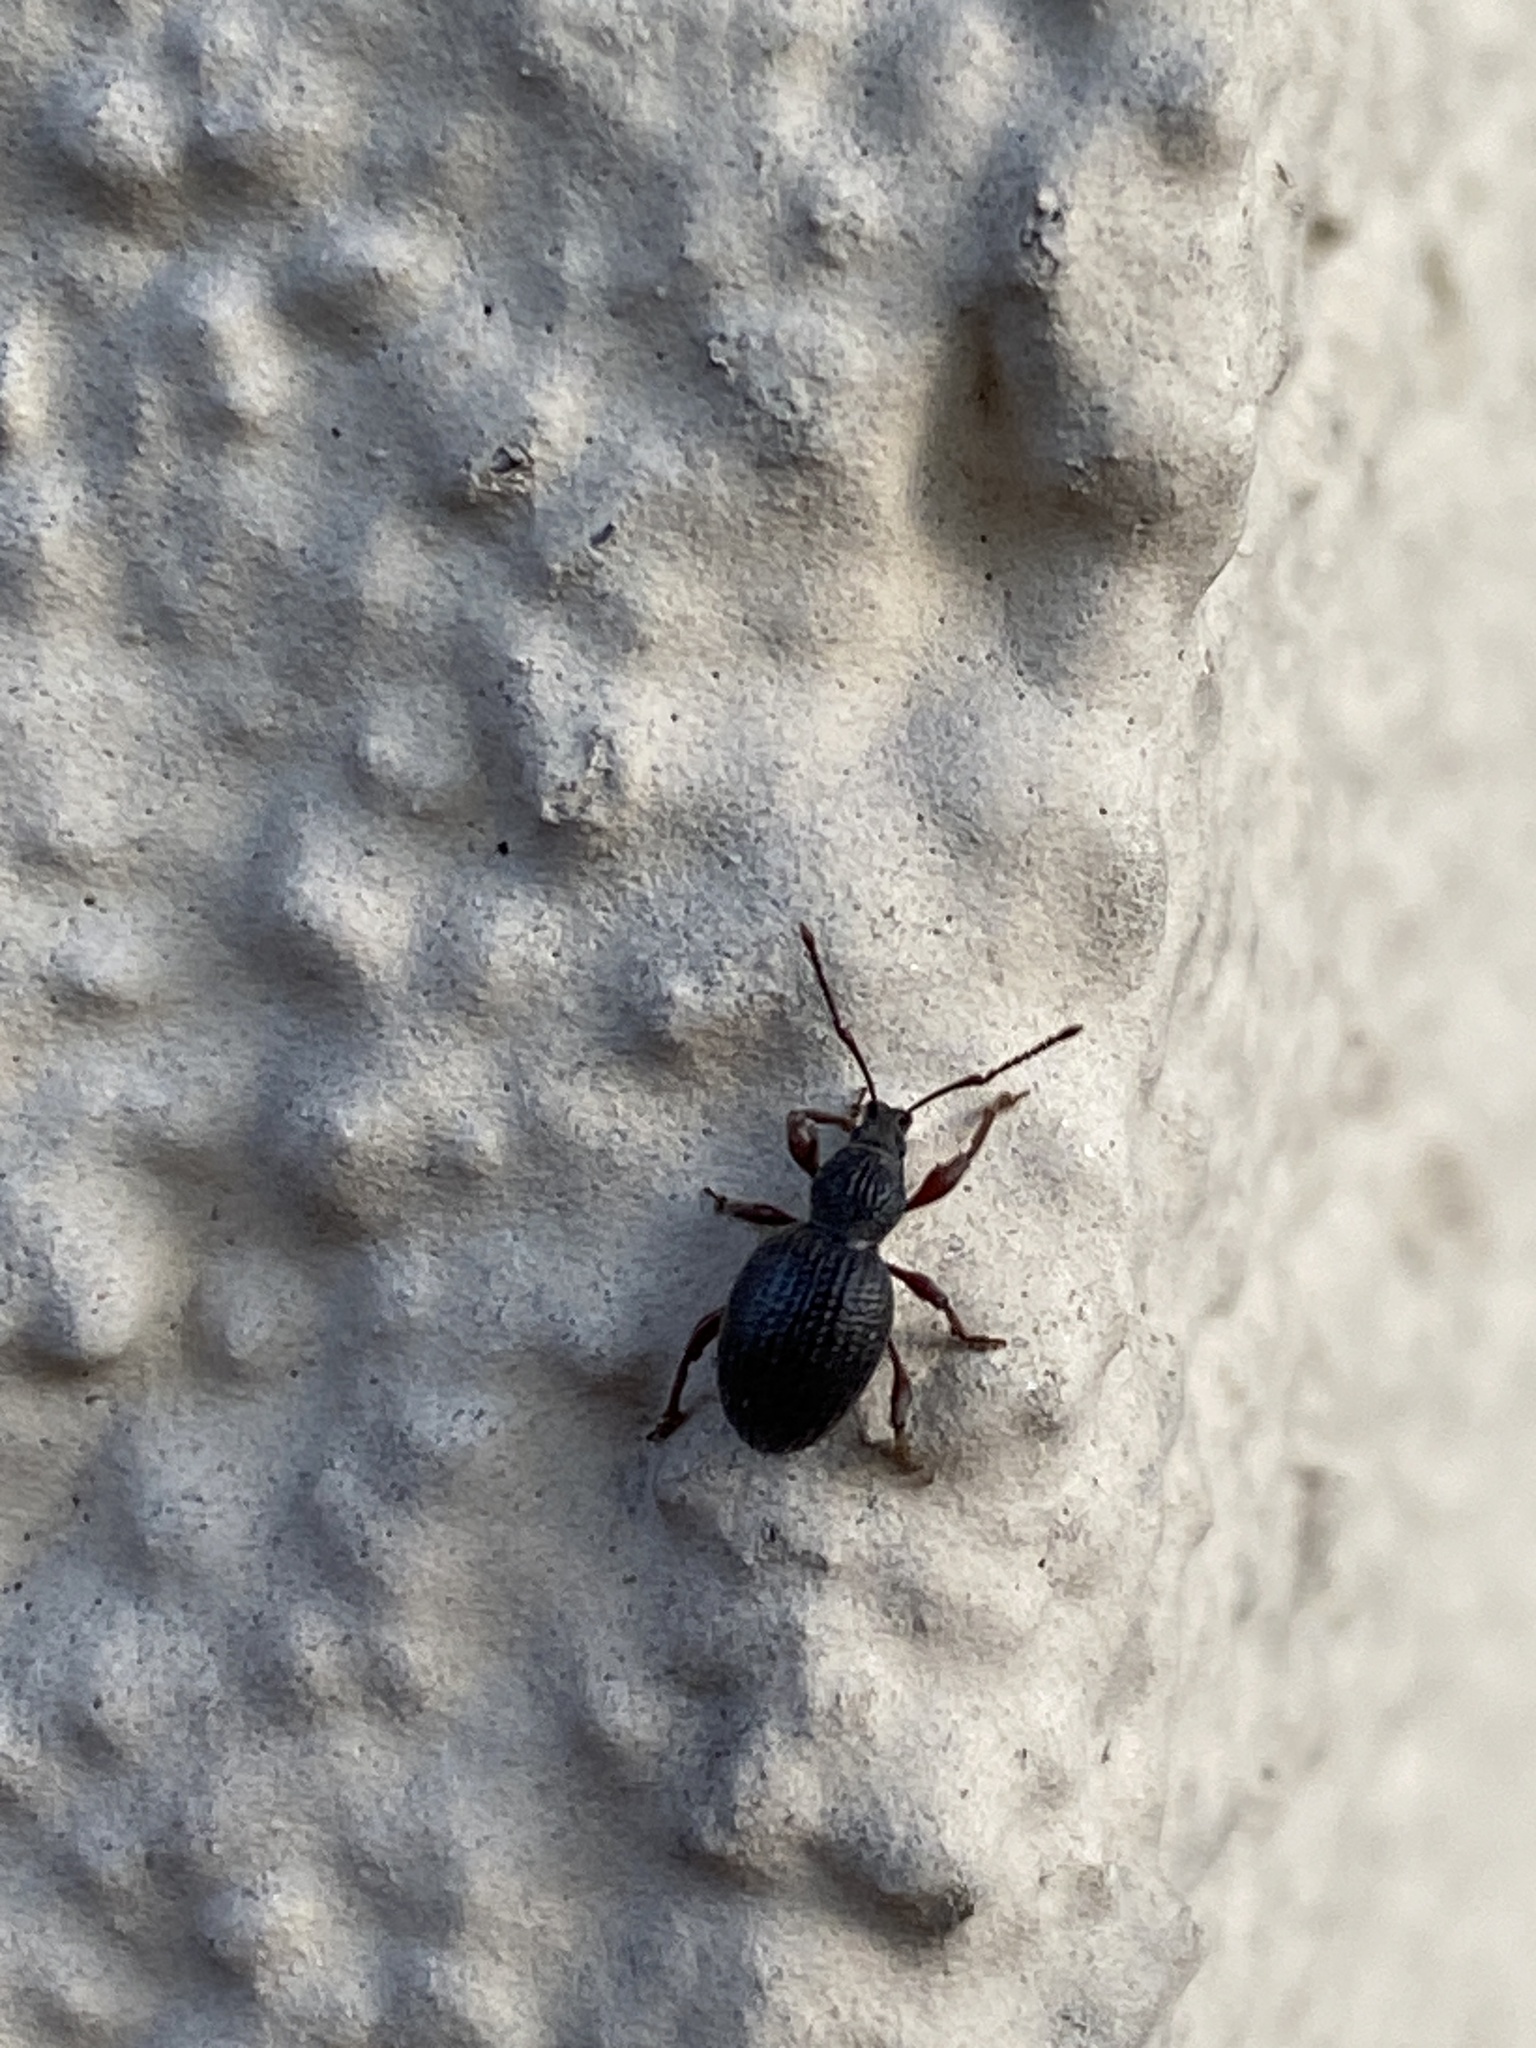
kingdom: Animalia
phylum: Arthropoda
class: Insecta
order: Coleoptera
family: Curculionidae
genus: Otiorhynchus
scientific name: Otiorhynchus ovatus
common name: Strawberry root weevil
